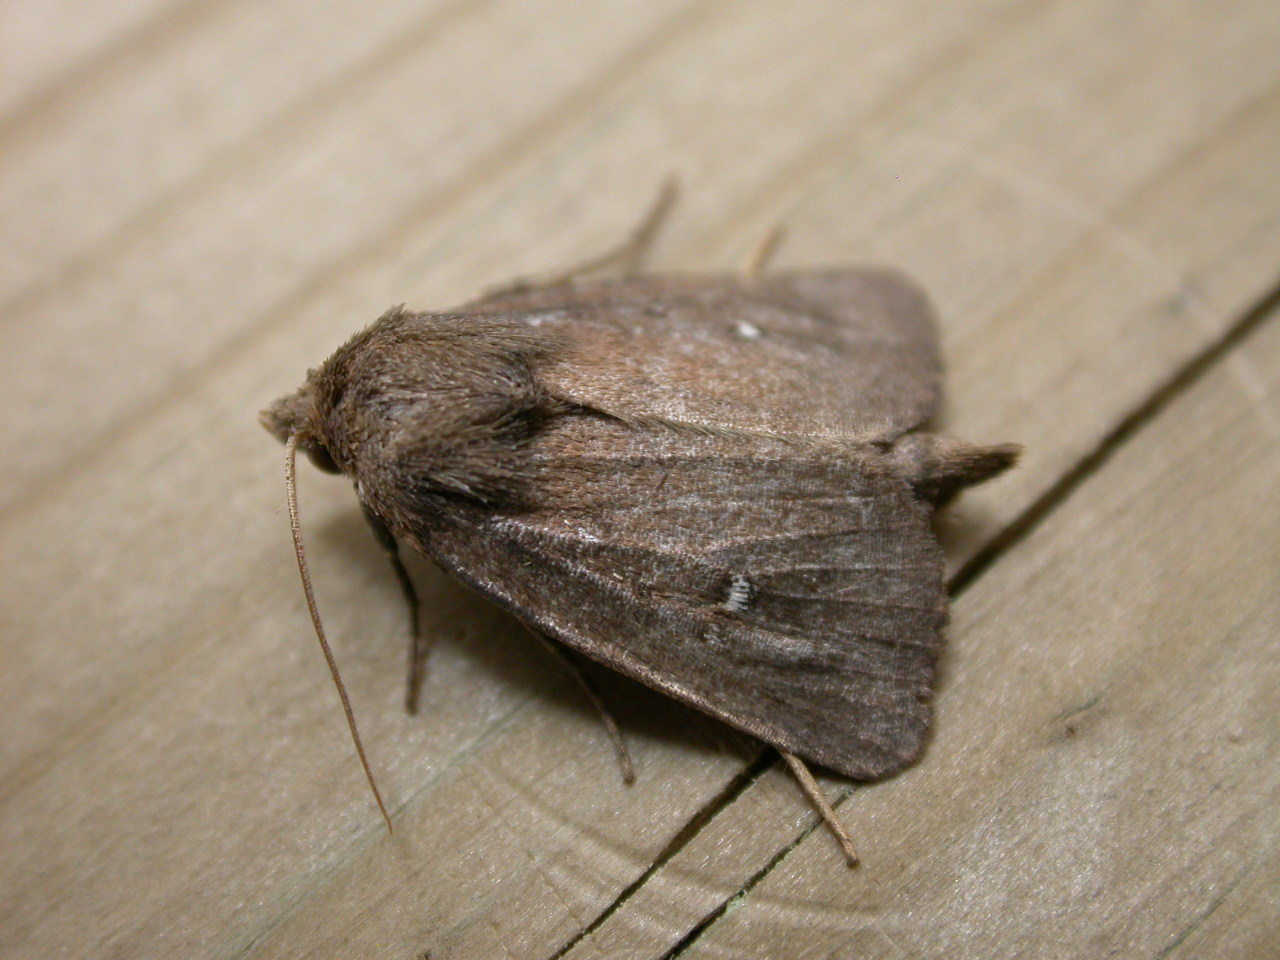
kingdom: Animalia
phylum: Arthropoda
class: Insecta
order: Lepidoptera
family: Noctuidae
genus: Lenisa
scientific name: Lenisa geminipuncta
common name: Twin-spotted wainscot
